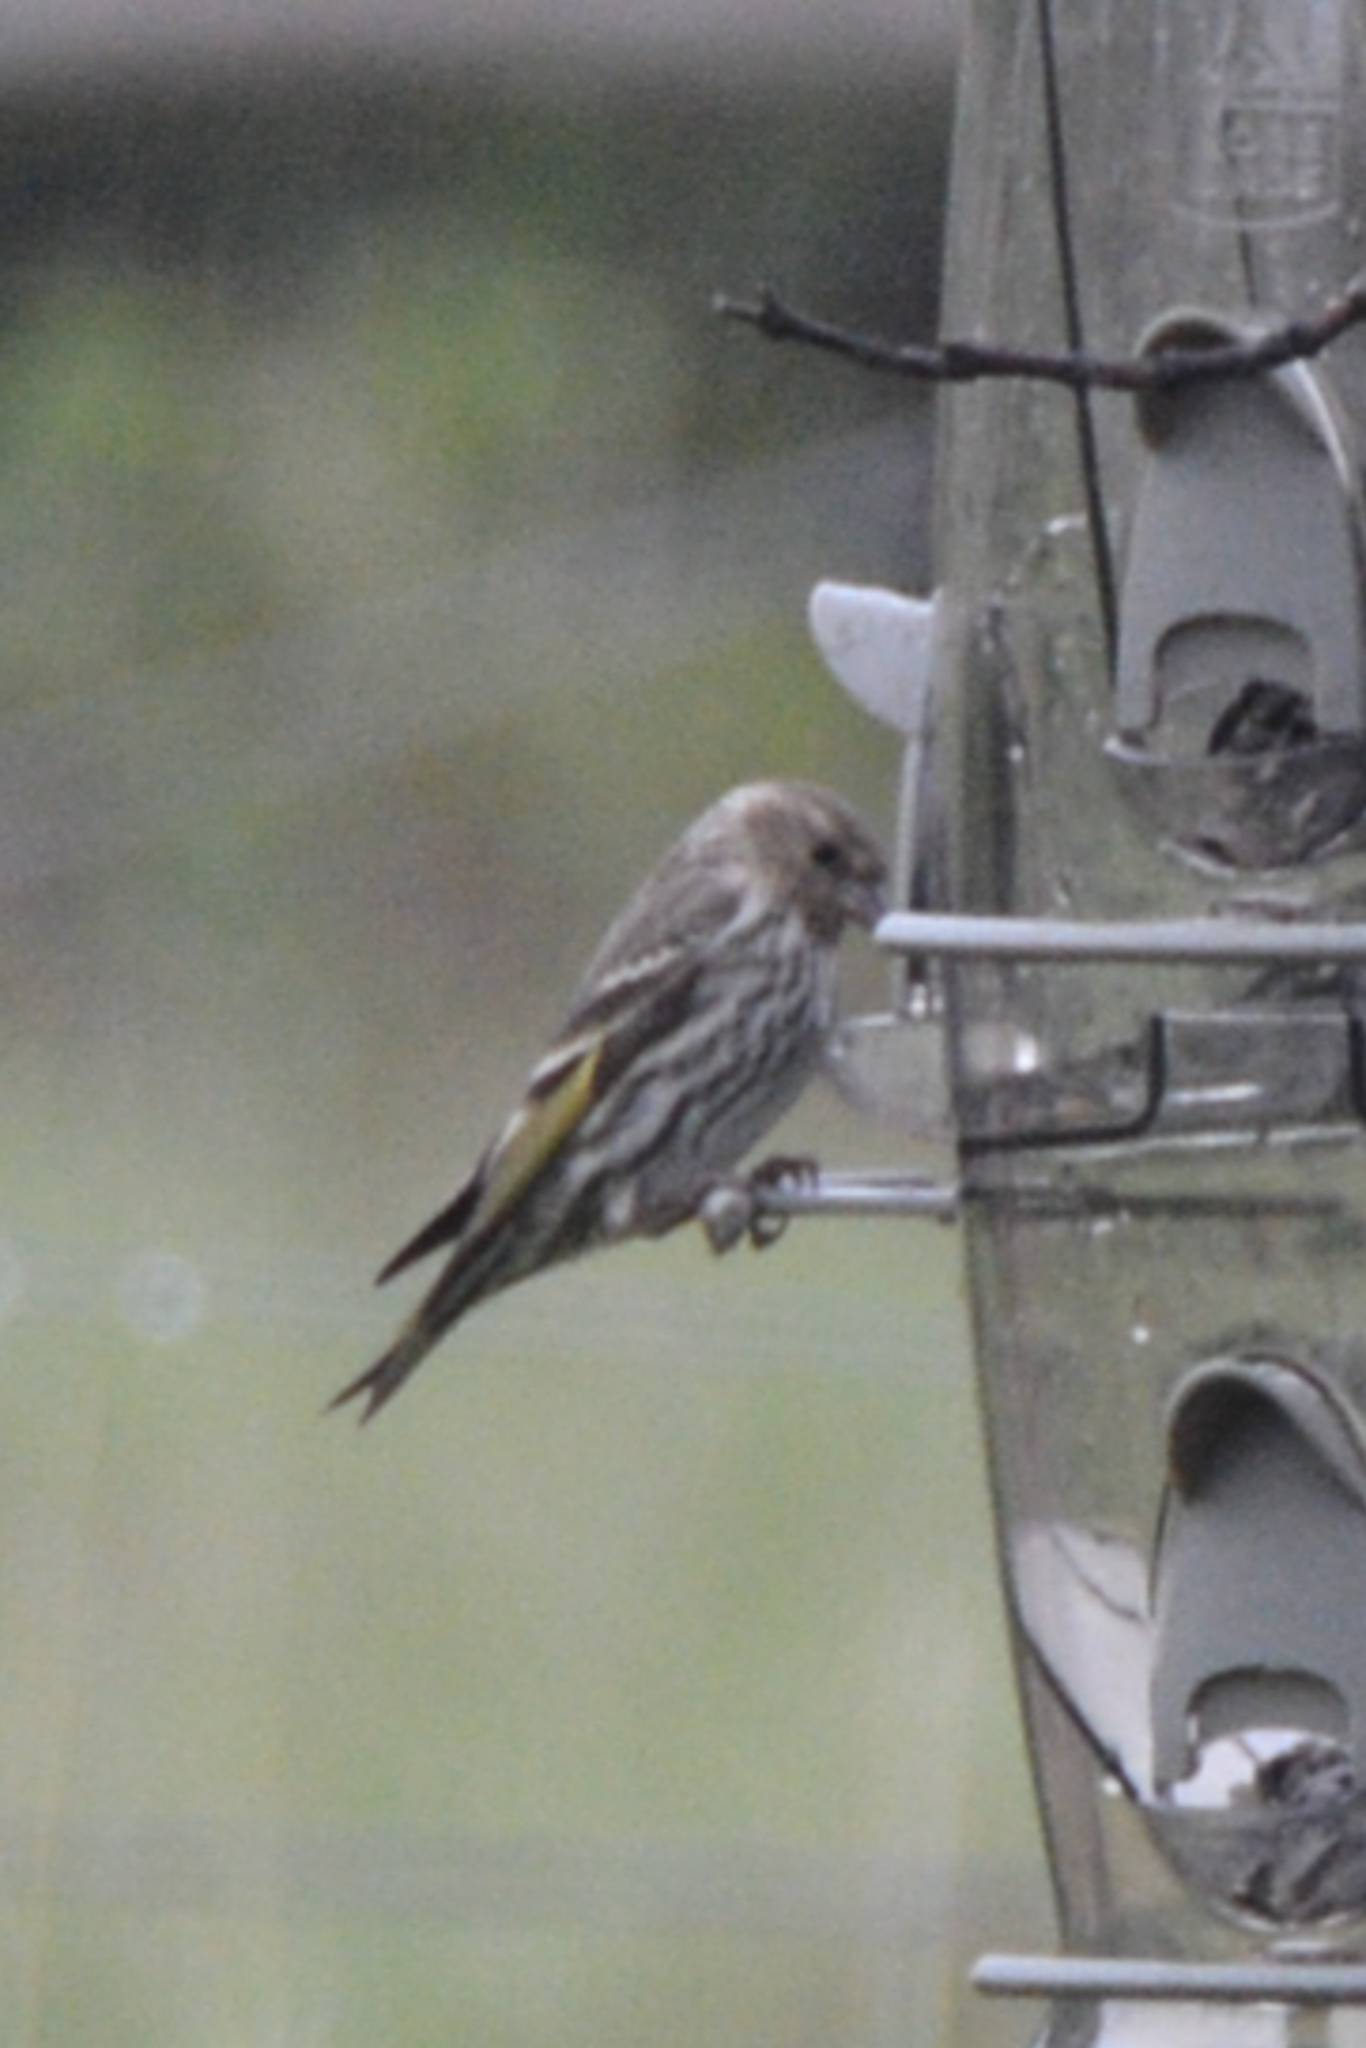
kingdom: Animalia
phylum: Chordata
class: Aves
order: Passeriformes
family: Fringillidae
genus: Spinus
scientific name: Spinus pinus
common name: Pine siskin
